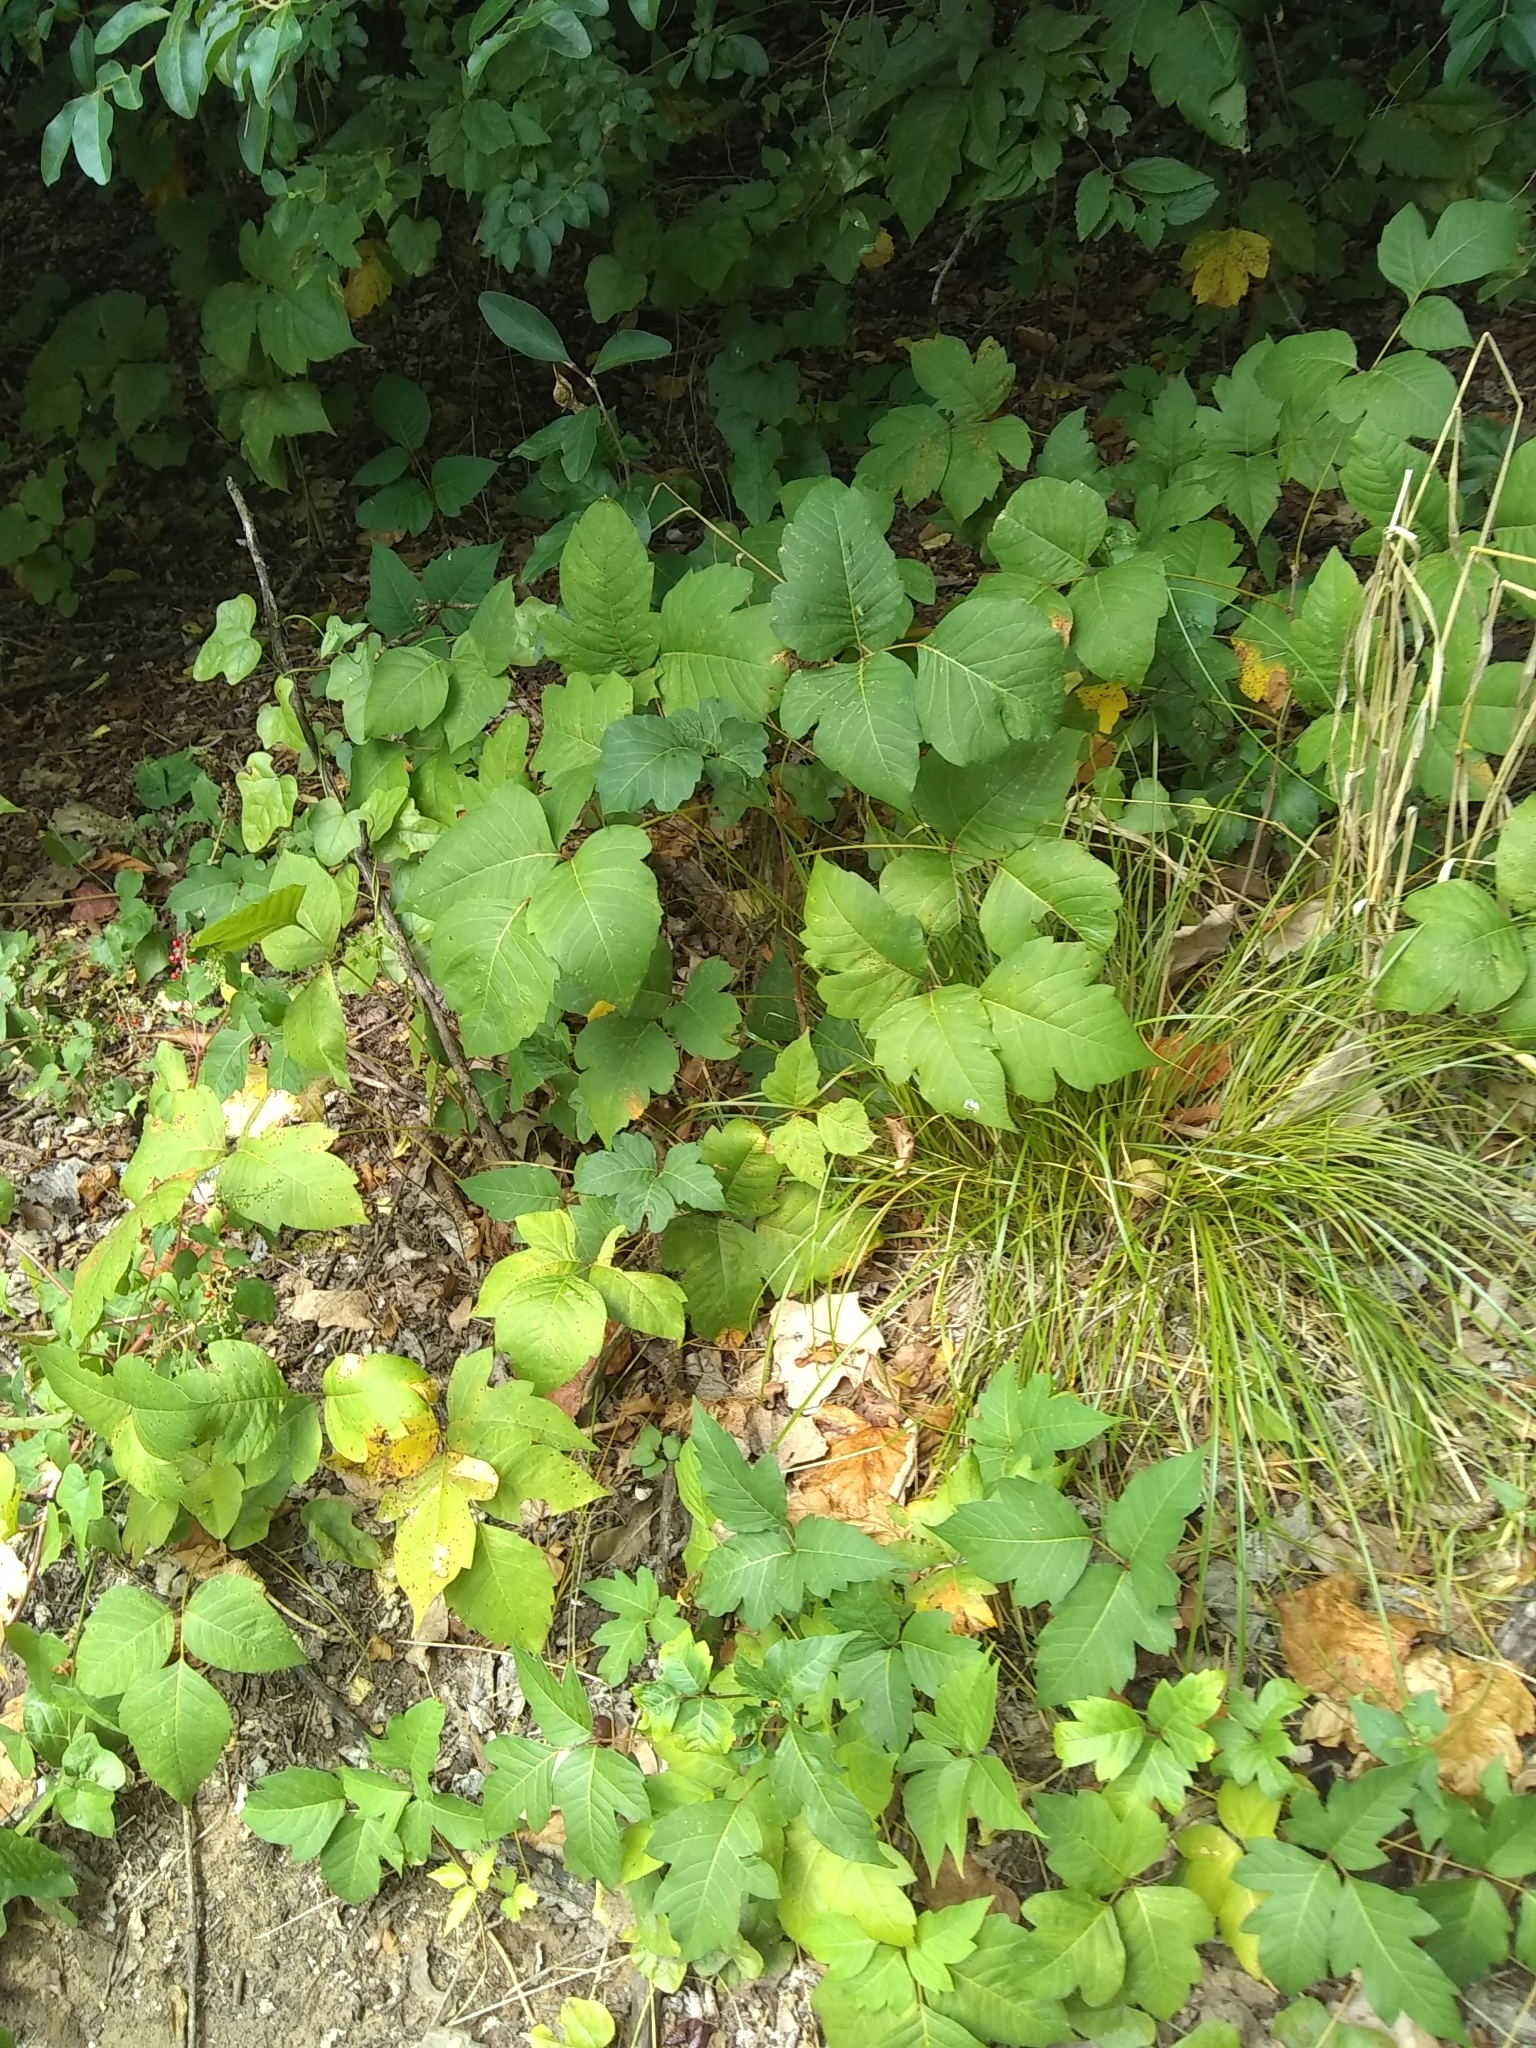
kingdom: Plantae
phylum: Tracheophyta
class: Magnoliopsida
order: Sapindales
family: Anacardiaceae
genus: Toxicodendron
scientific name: Toxicodendron radicans
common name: Poison ivy
